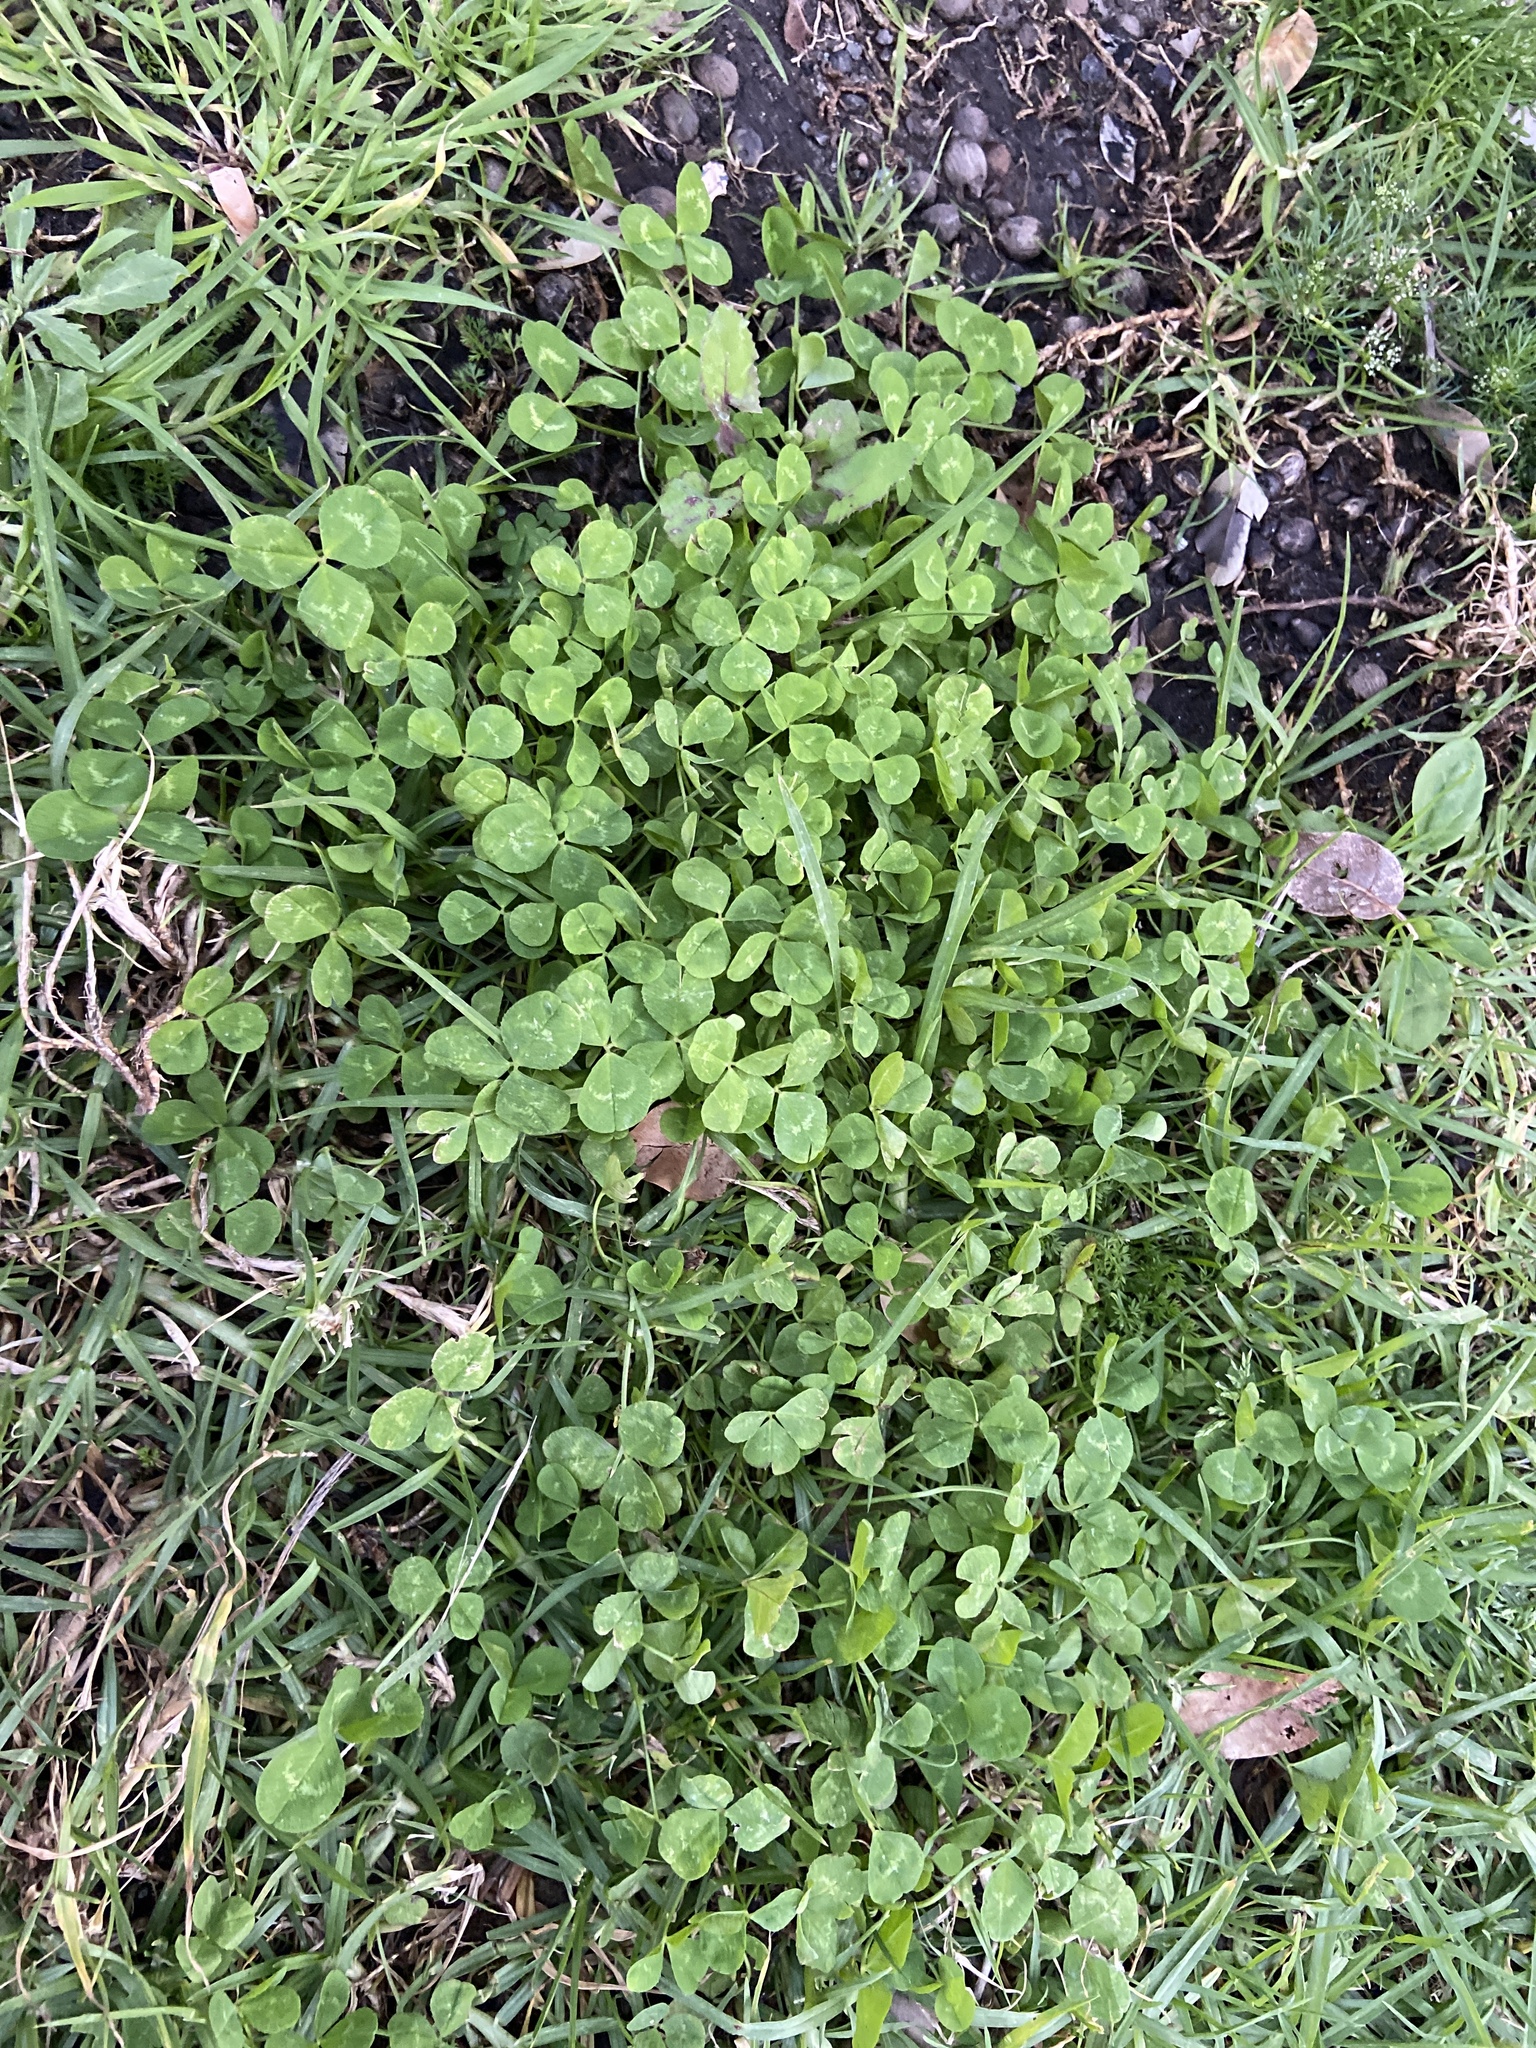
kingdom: Plantae
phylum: Tracheophyta
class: Magnoliopsida
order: Fabales
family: Fabaceae
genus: Trifolium
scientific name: Trifolium repens
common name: White clover
